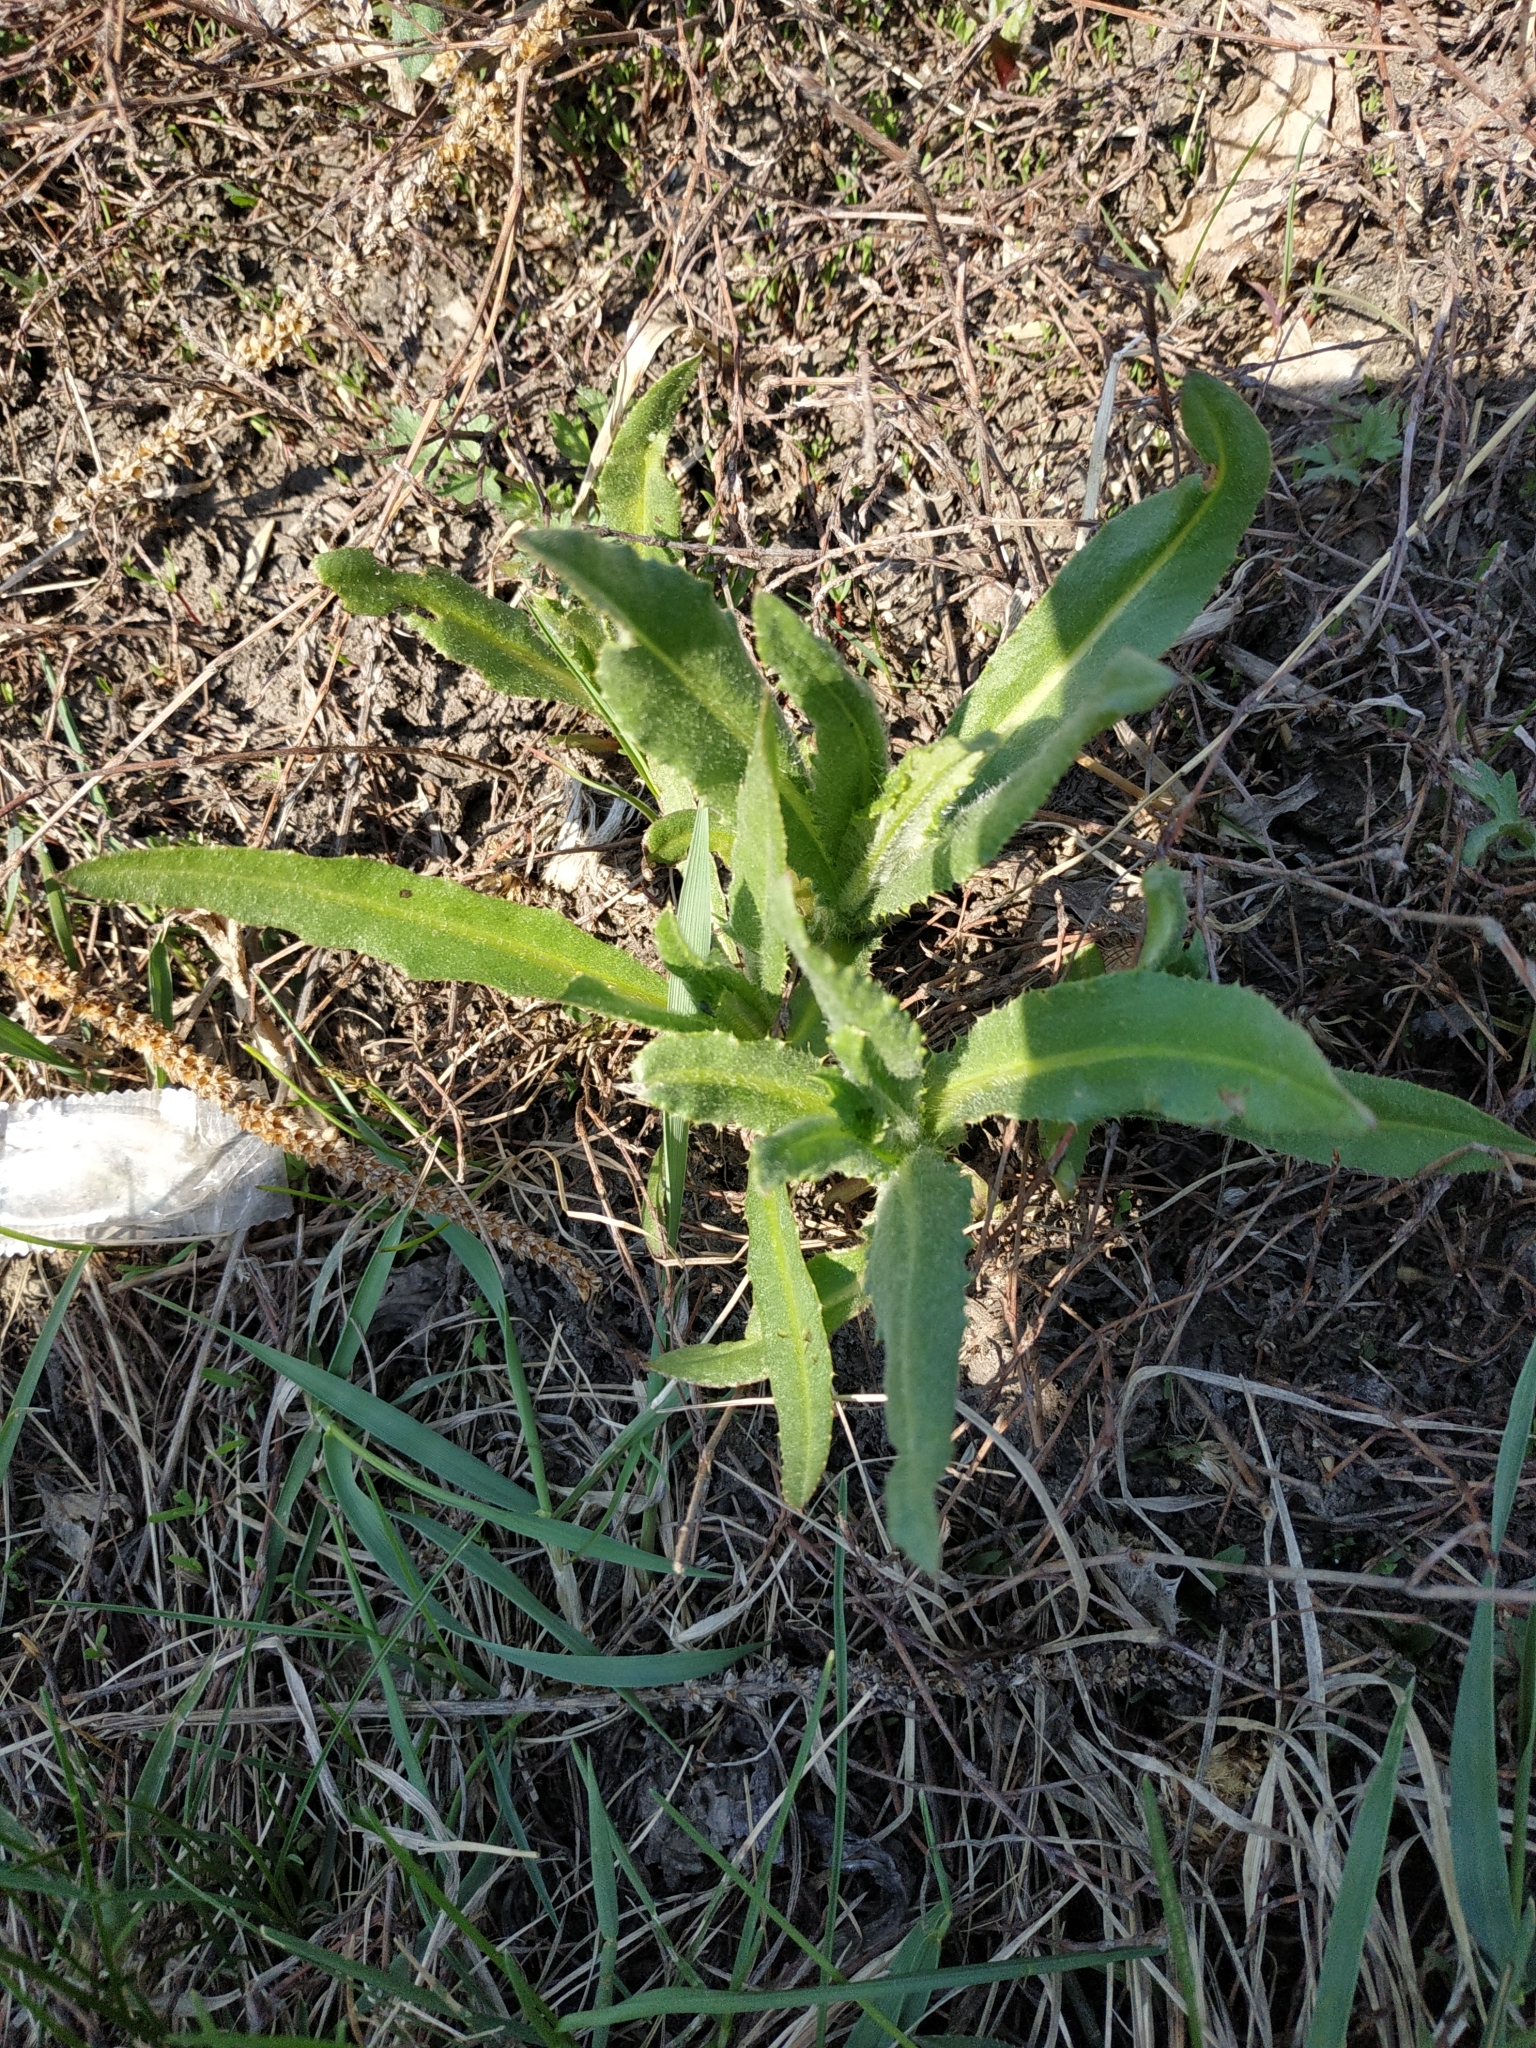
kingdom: Plantae
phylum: Tracheophyta
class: Magnoliopsida
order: Asterales
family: Asteraceae
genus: Cirsium
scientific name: Cirsium arvense
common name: Creeping thistle
